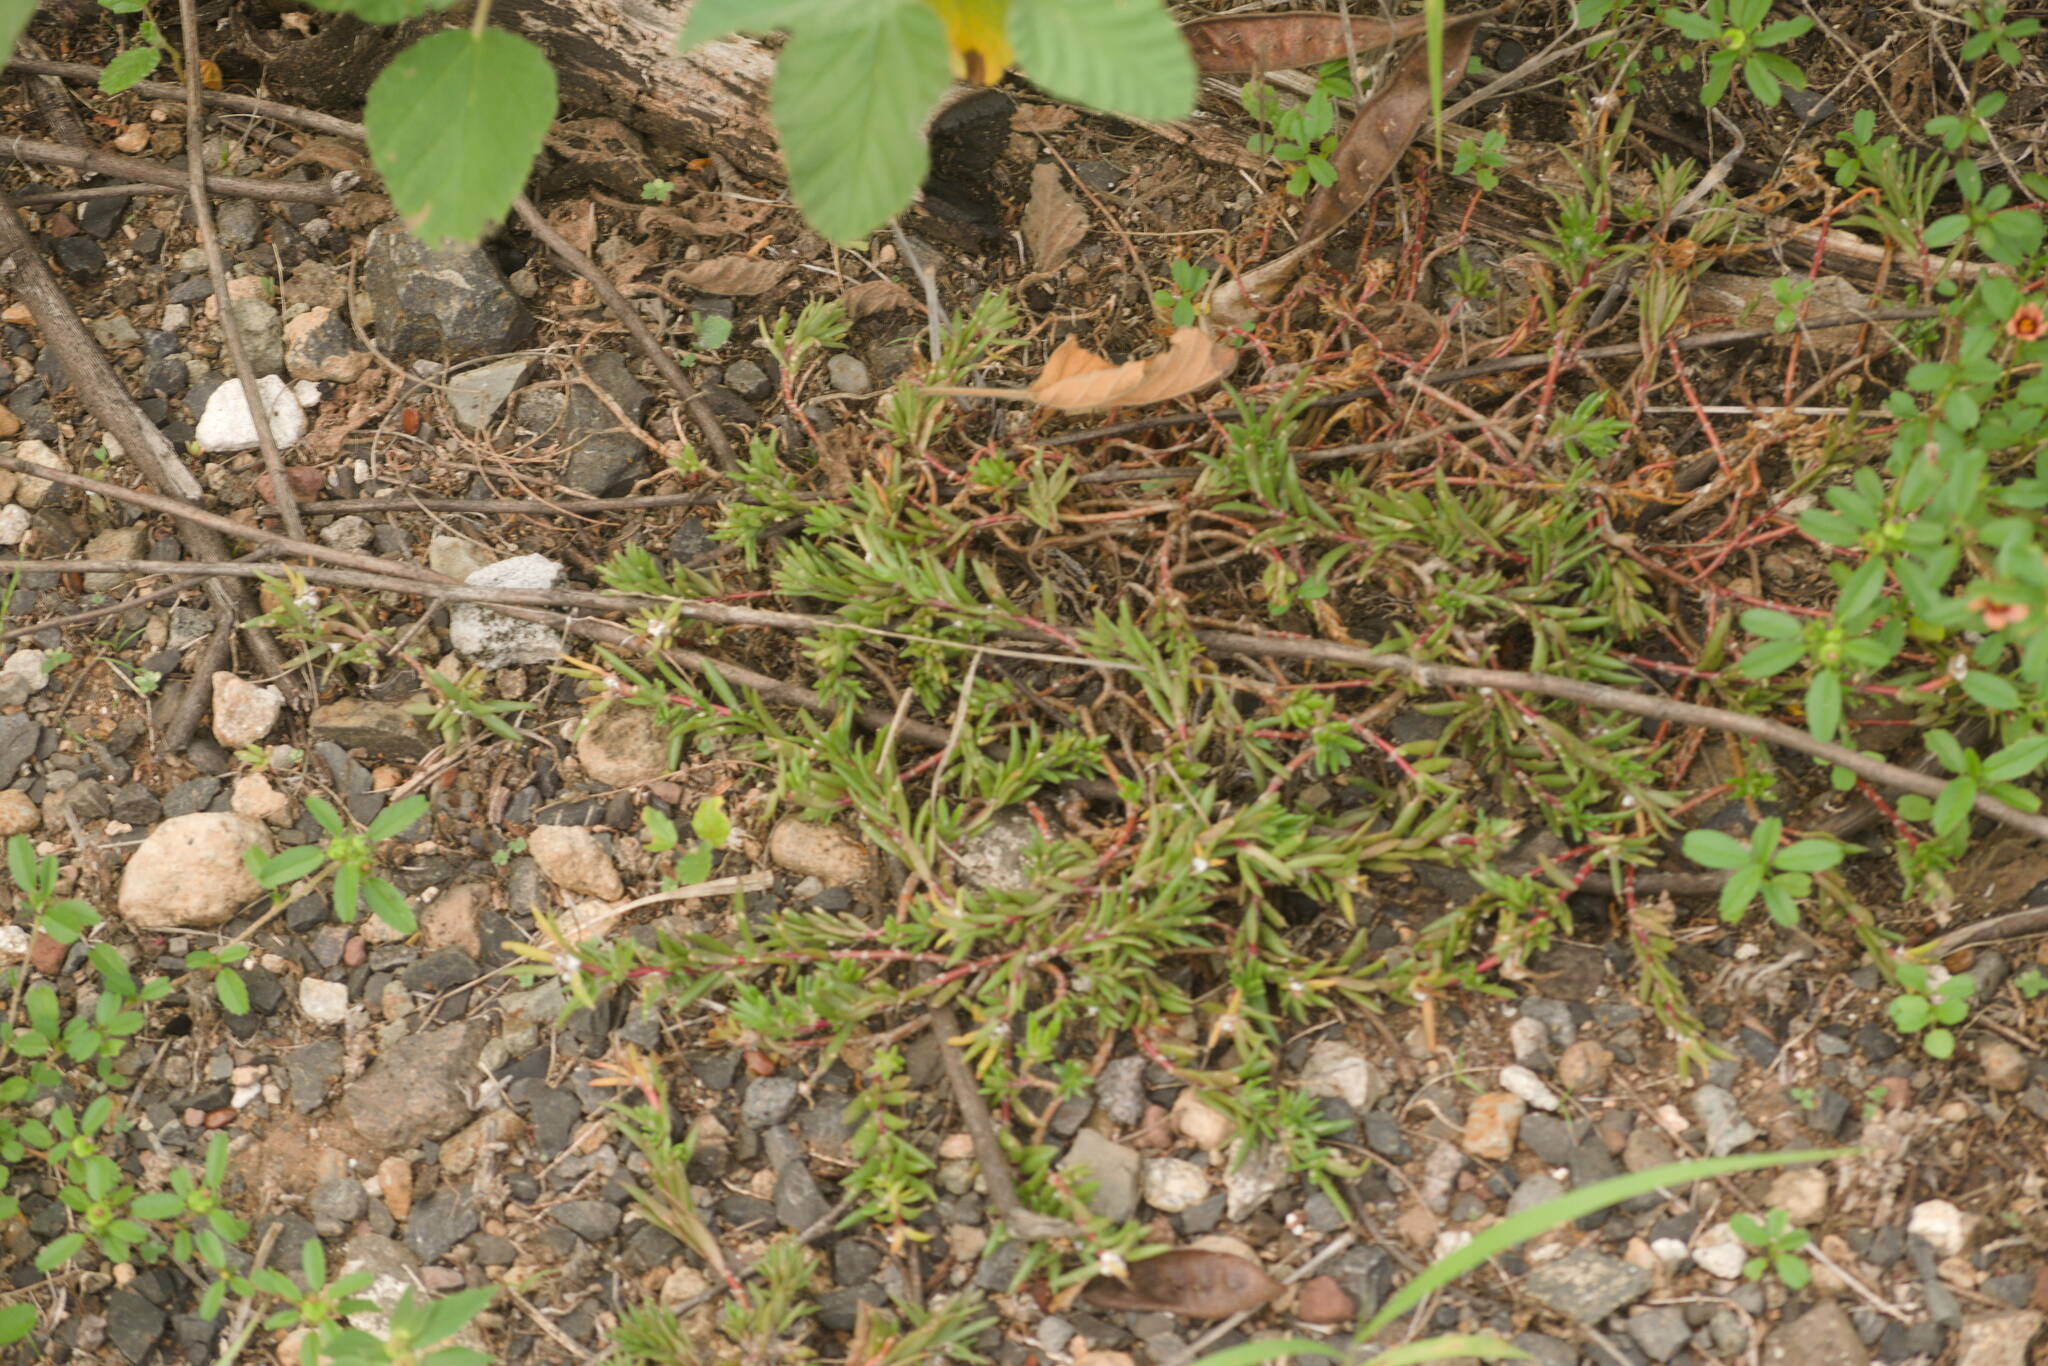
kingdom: Plantae
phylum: Tracheophyta
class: Magnoliopsida
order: Caryophyllales
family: Portulacaceae
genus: Portulaca
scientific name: Portulaca pilosa
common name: Kiss me quick
